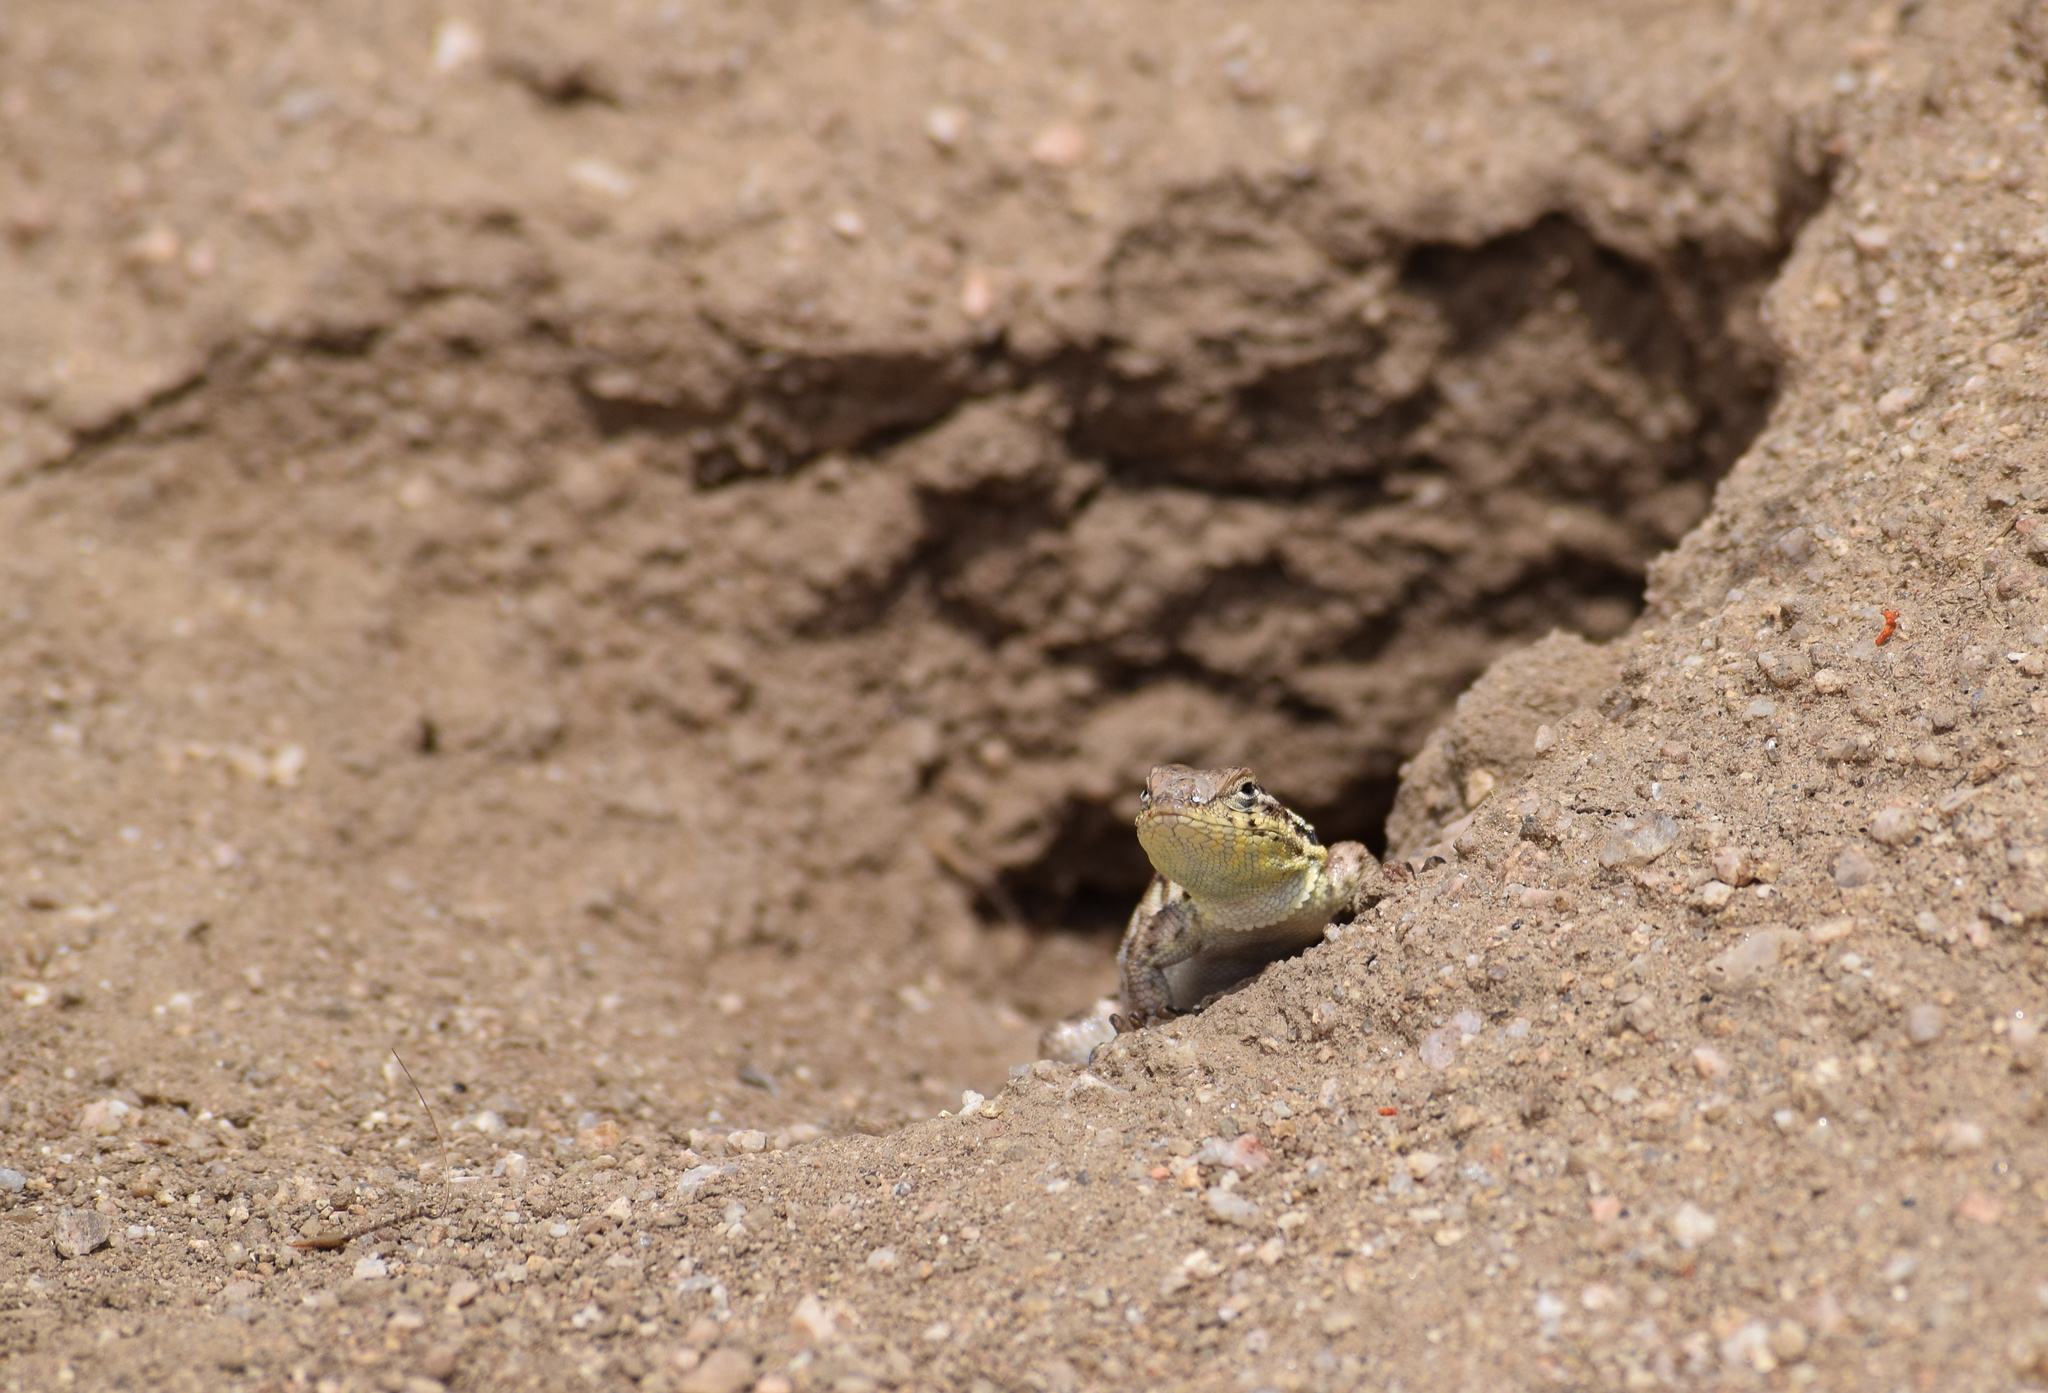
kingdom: Animalia
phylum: Chordata
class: Squamata
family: Phrynosomatidae
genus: Uta
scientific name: Uta stansburiana
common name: Side-blotched lizard
